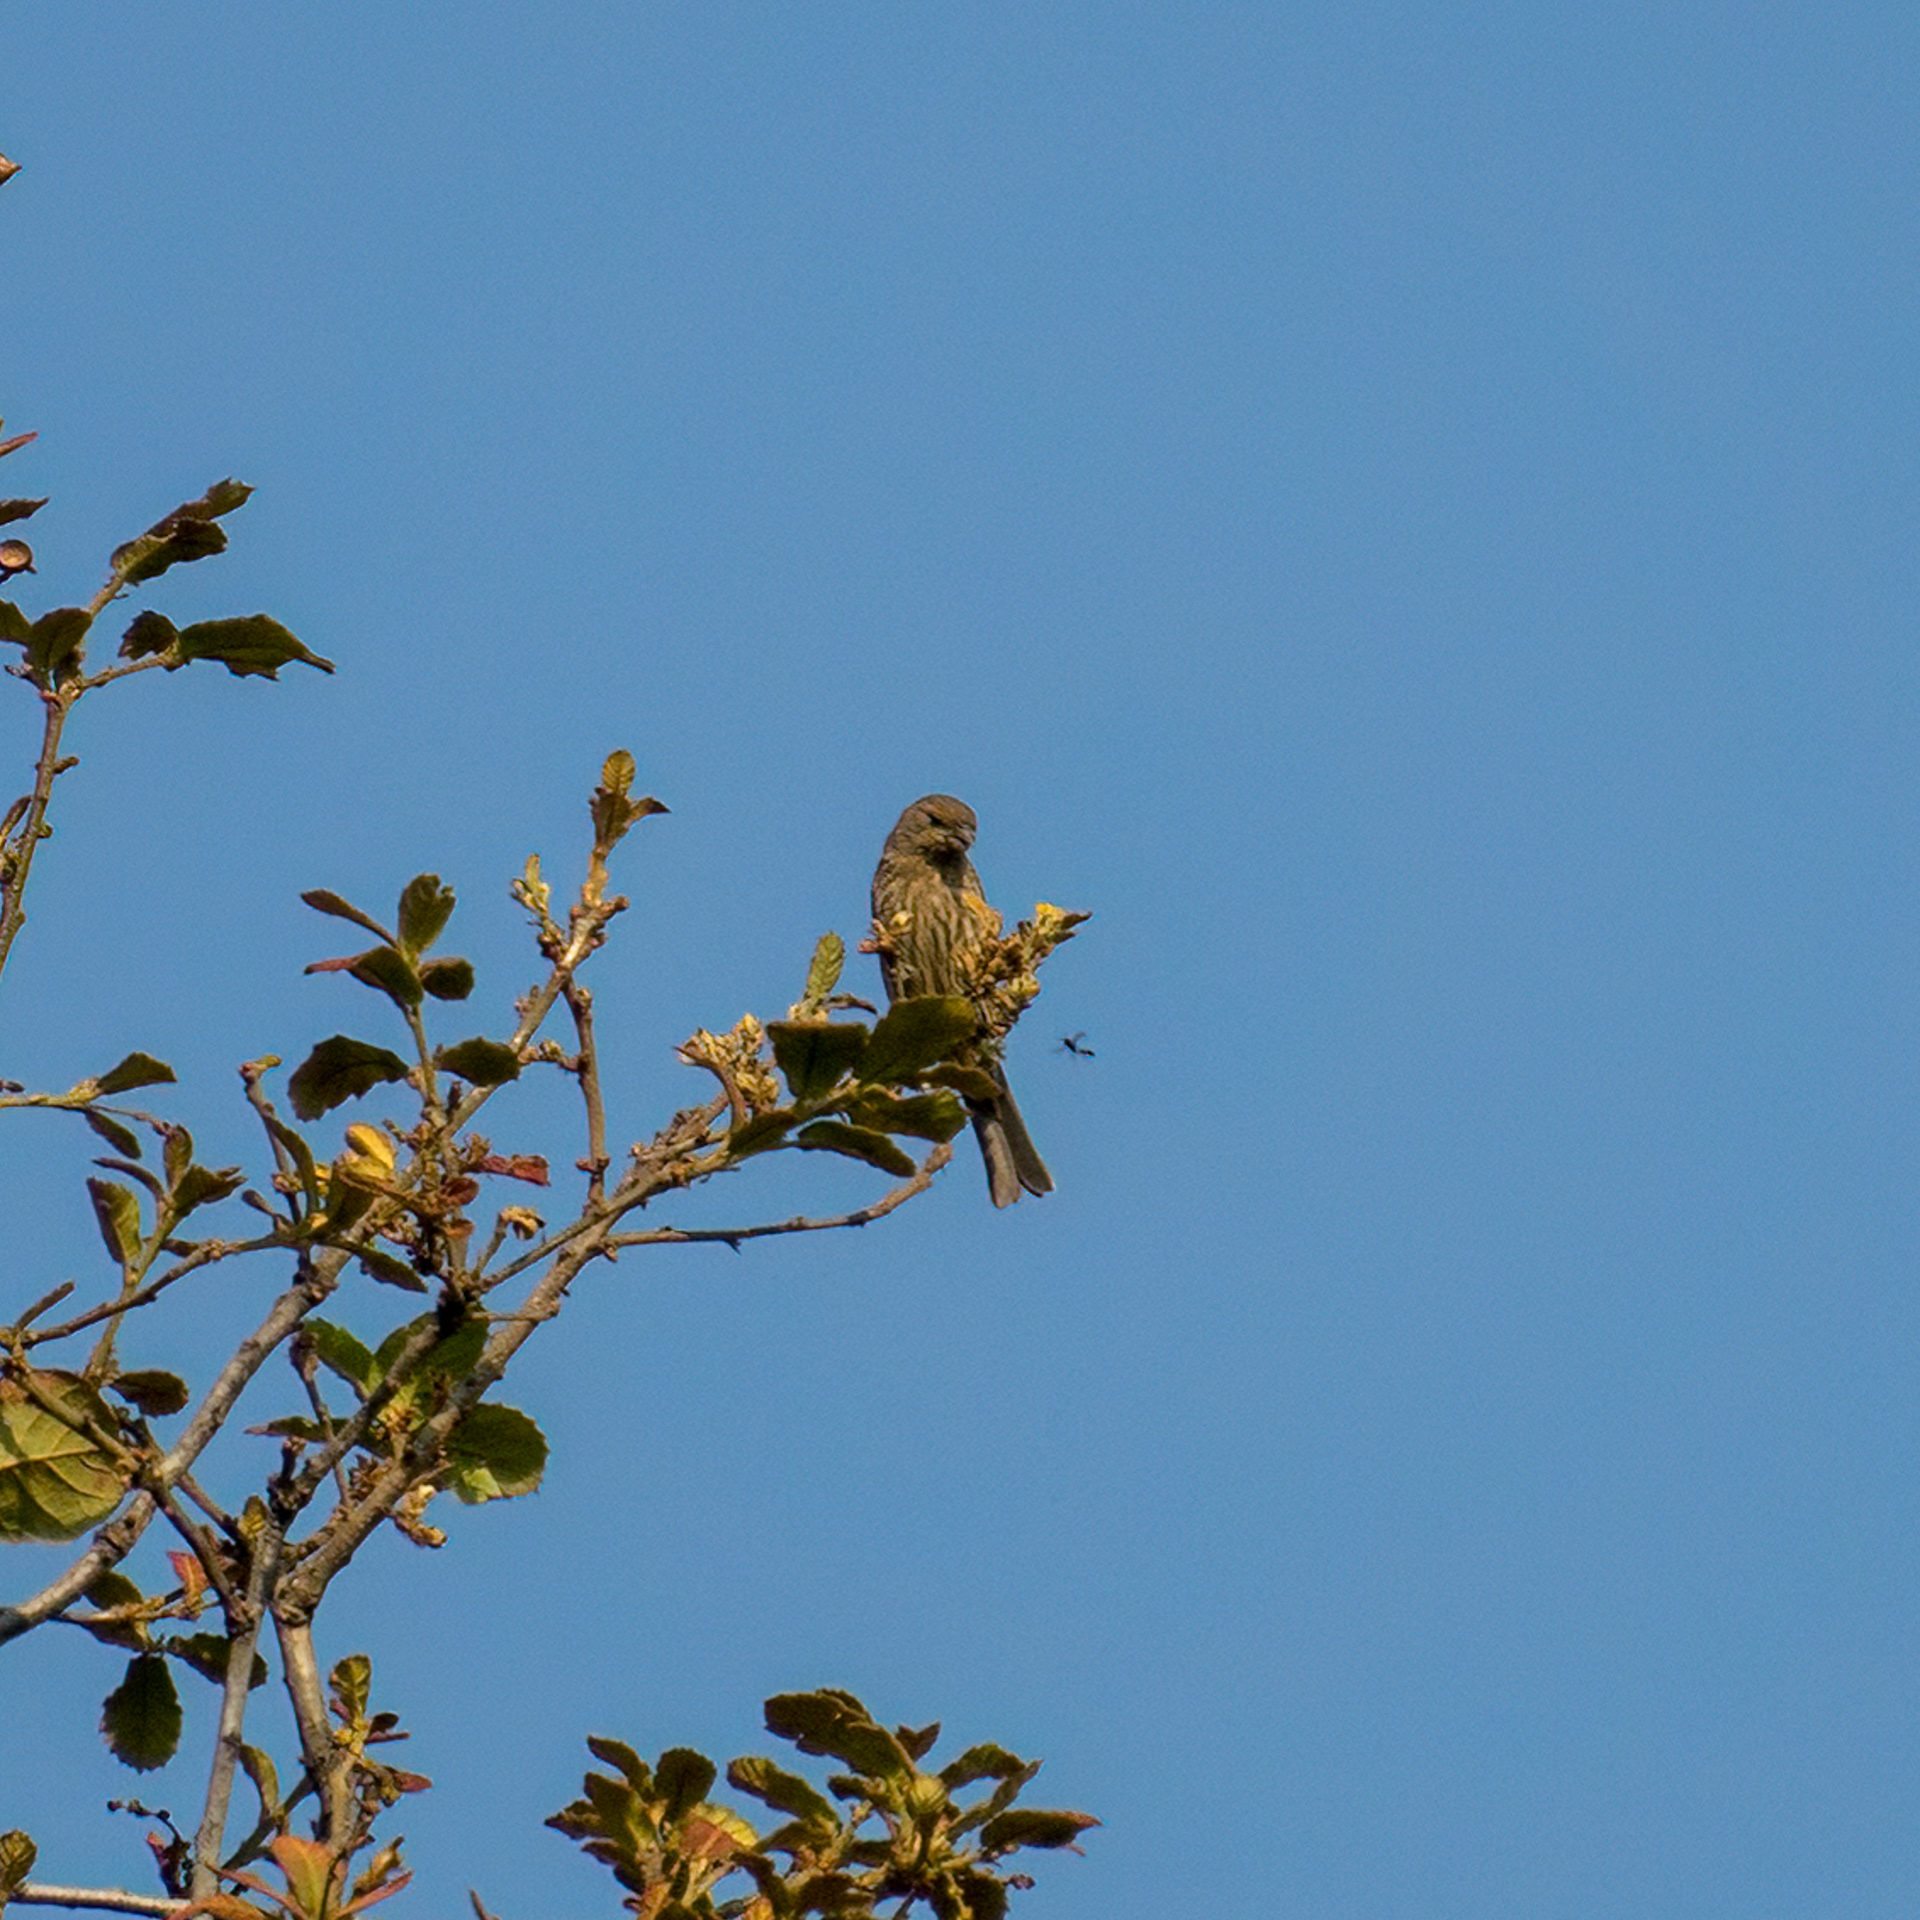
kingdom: Animalia
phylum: Chordata
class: Aves
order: Passeriformes
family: Fringillidae
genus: Haemorhous
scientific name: Haemorhous mexicanus
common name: House finch
